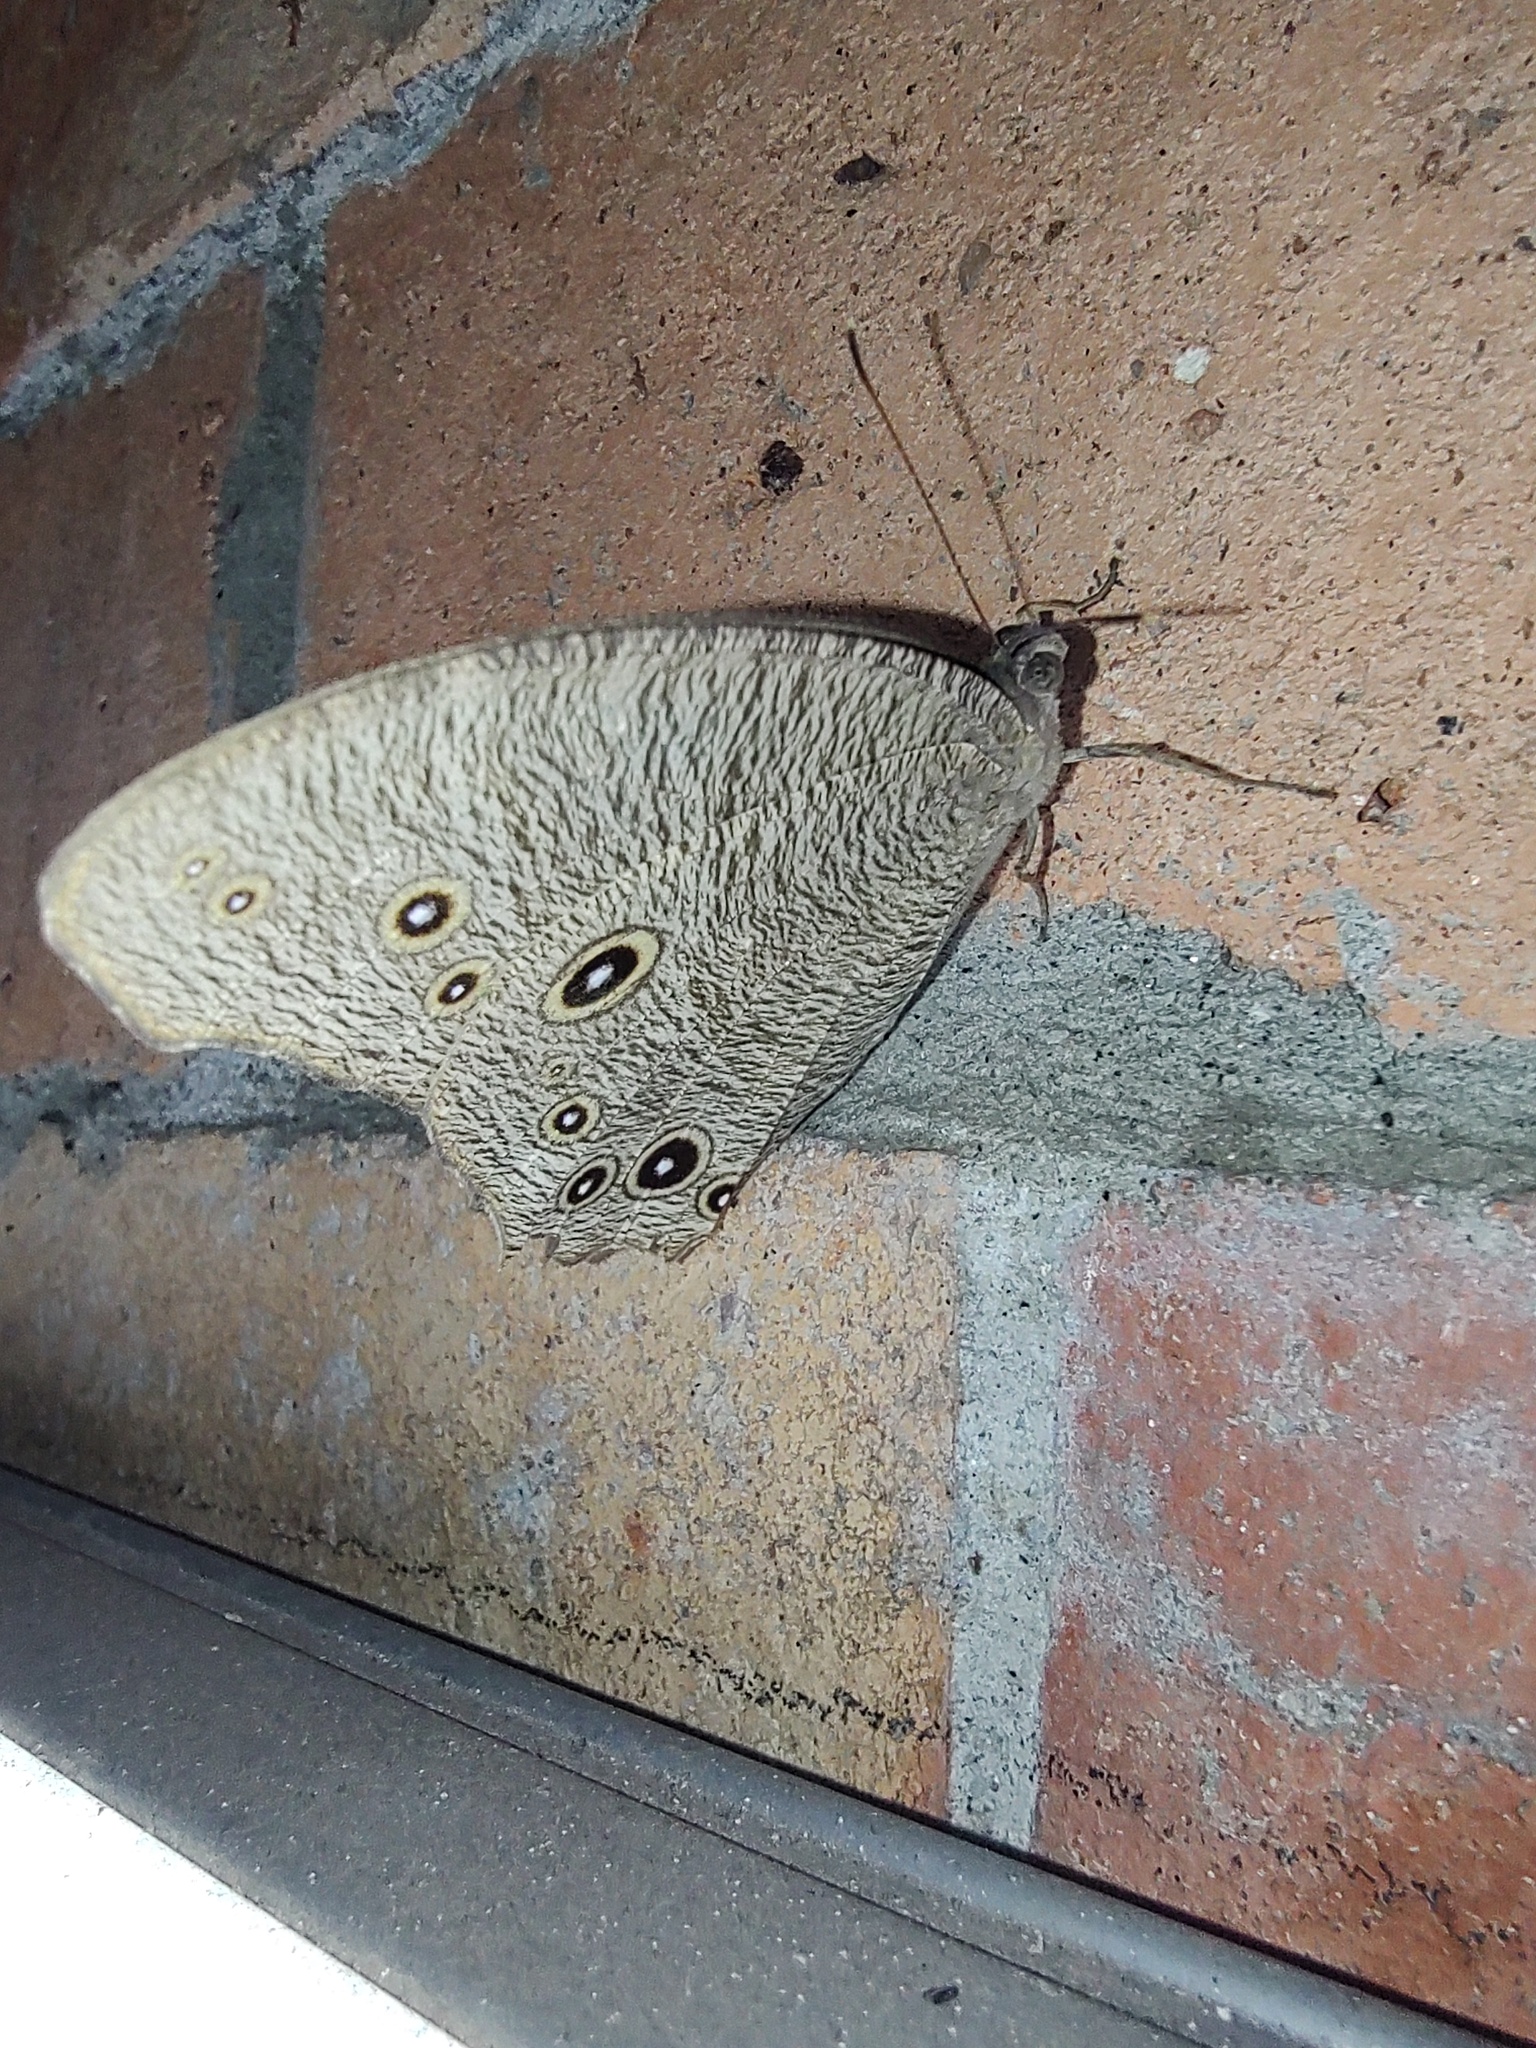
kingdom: Animalia
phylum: Arthropoda
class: Insecta
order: Lepidoptera
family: Nymphalidae
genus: Melanitis
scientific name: Melanitis leda
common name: Twilight brown
